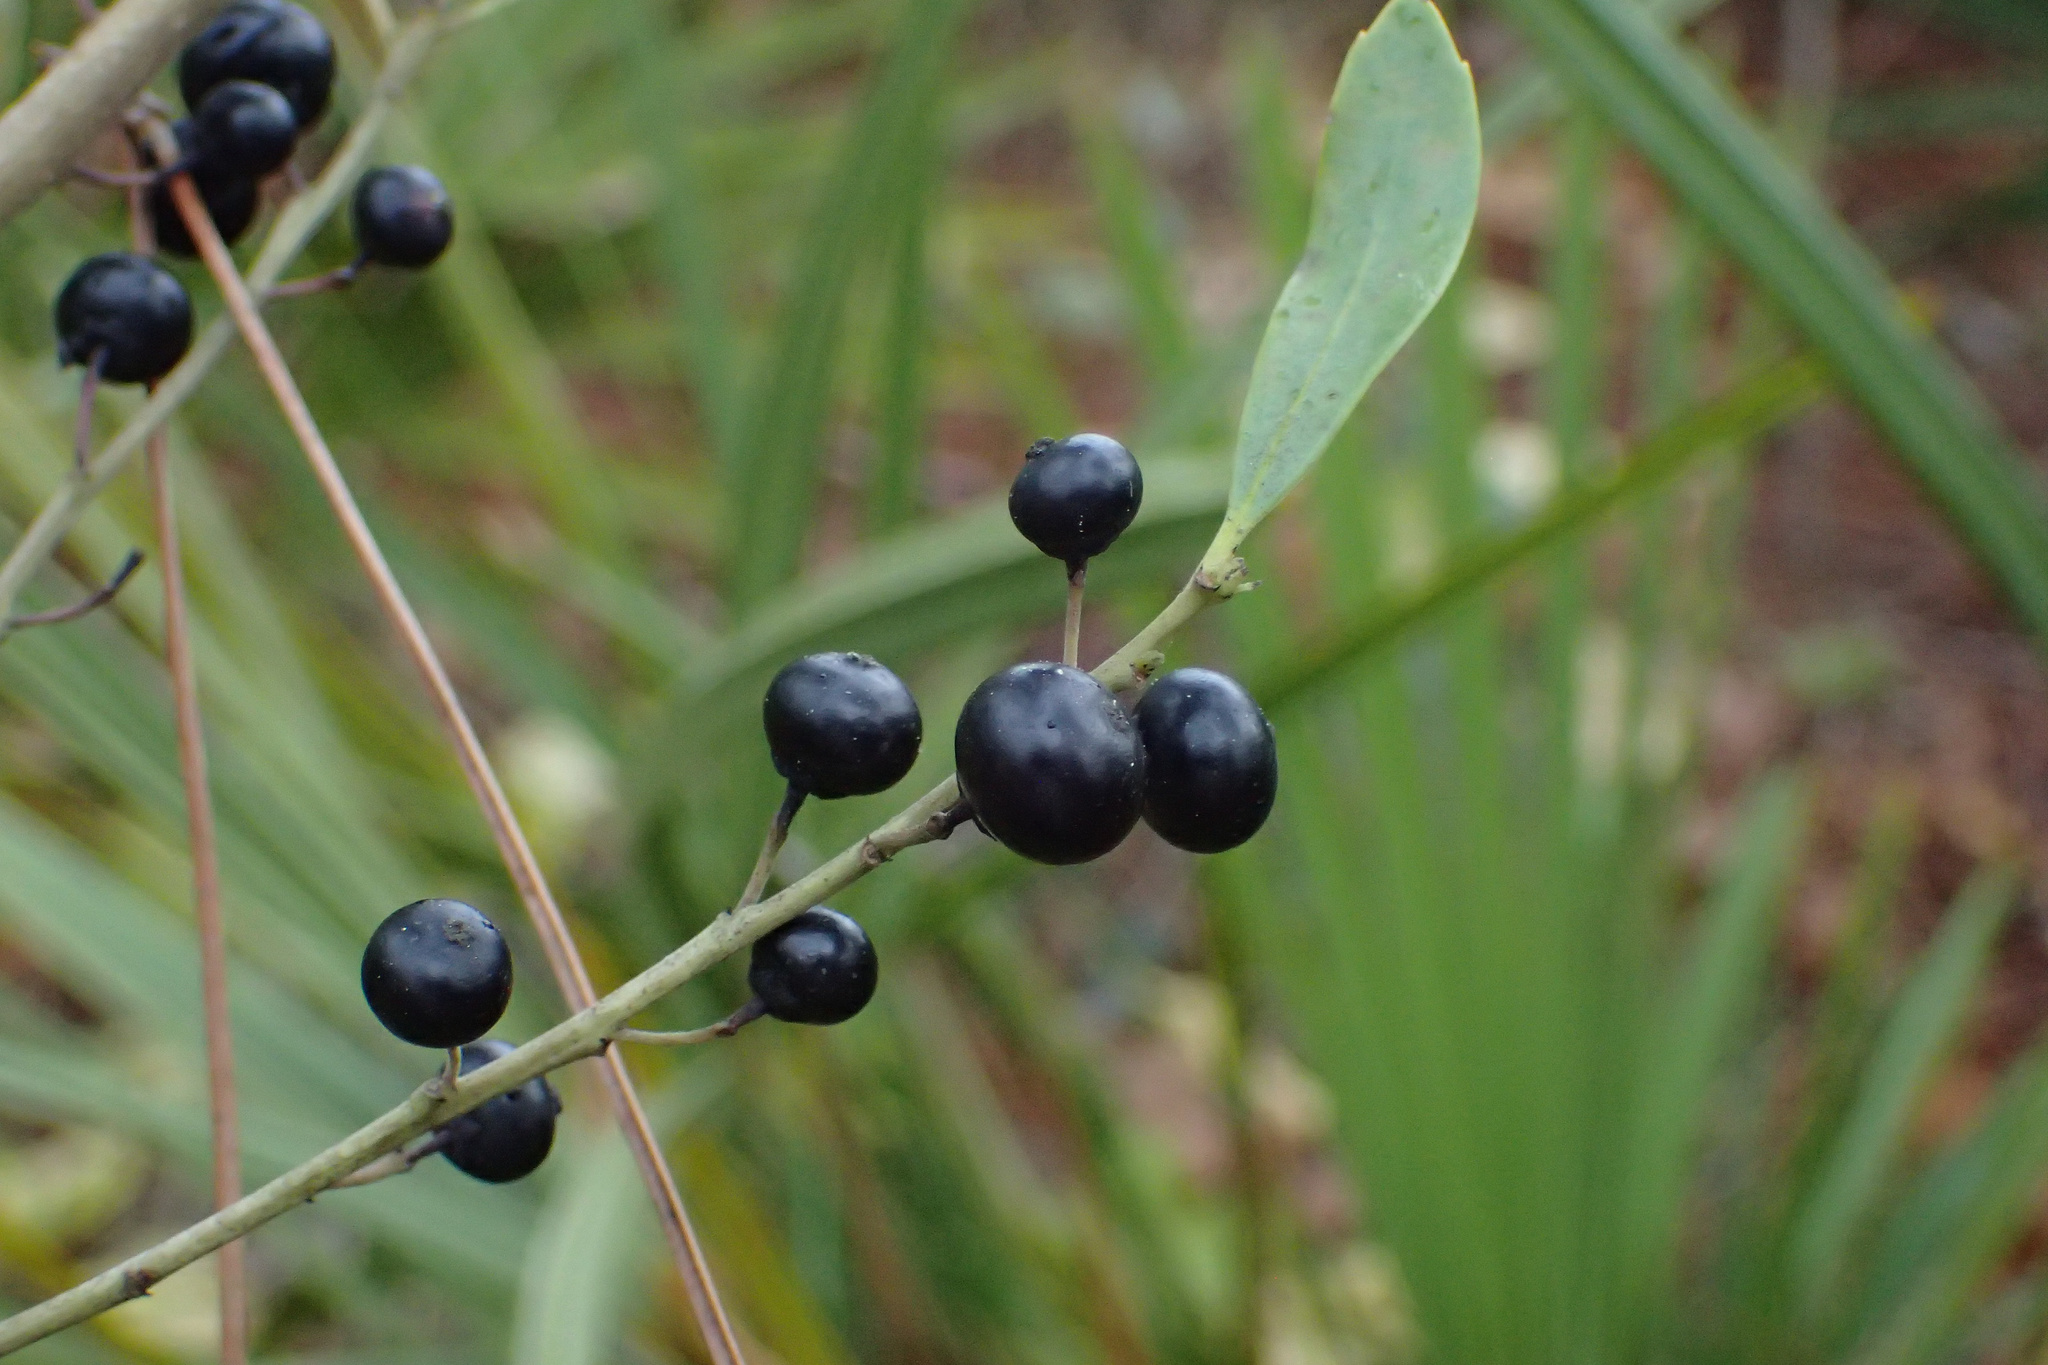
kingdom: Plantae
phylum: Tracheophyta
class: Magnoliopsida
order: Aquifoliales
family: Aquifoliaceae
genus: Ilex
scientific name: Ilex glabra
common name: Bitter gallberry
